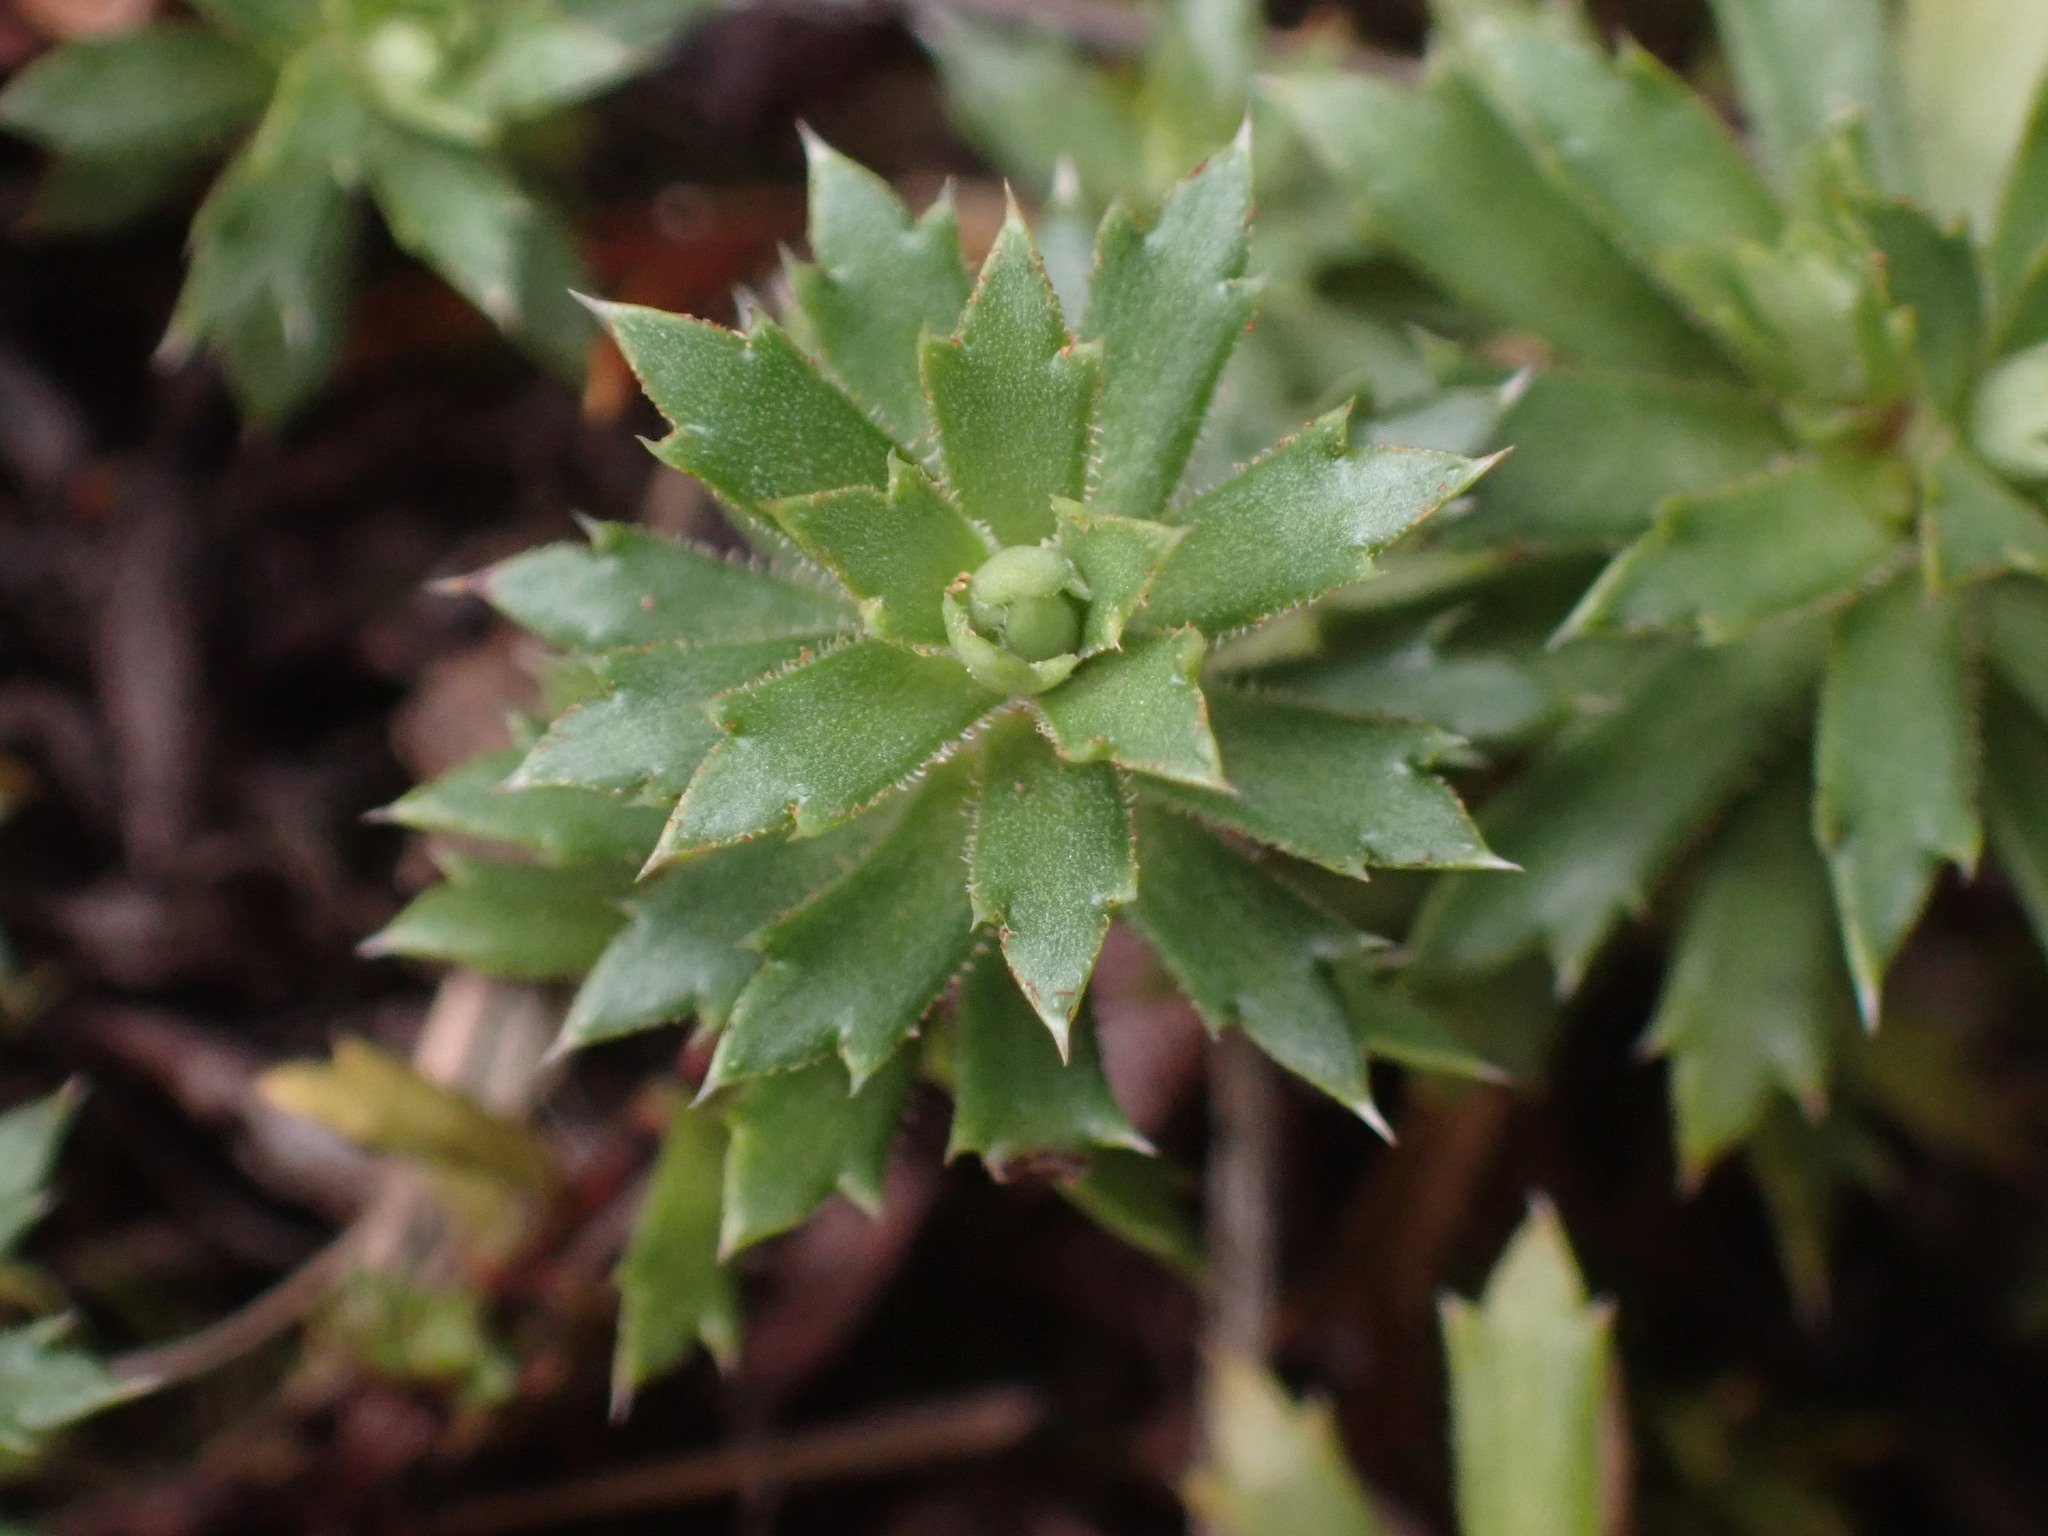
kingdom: Plantae
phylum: Tracheophyta
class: Magnoliopsida
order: Saxifragales
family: Saxifragaceae
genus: Saxifraga
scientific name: Saxifraga tricuspidata
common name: Prickly saxifrage
